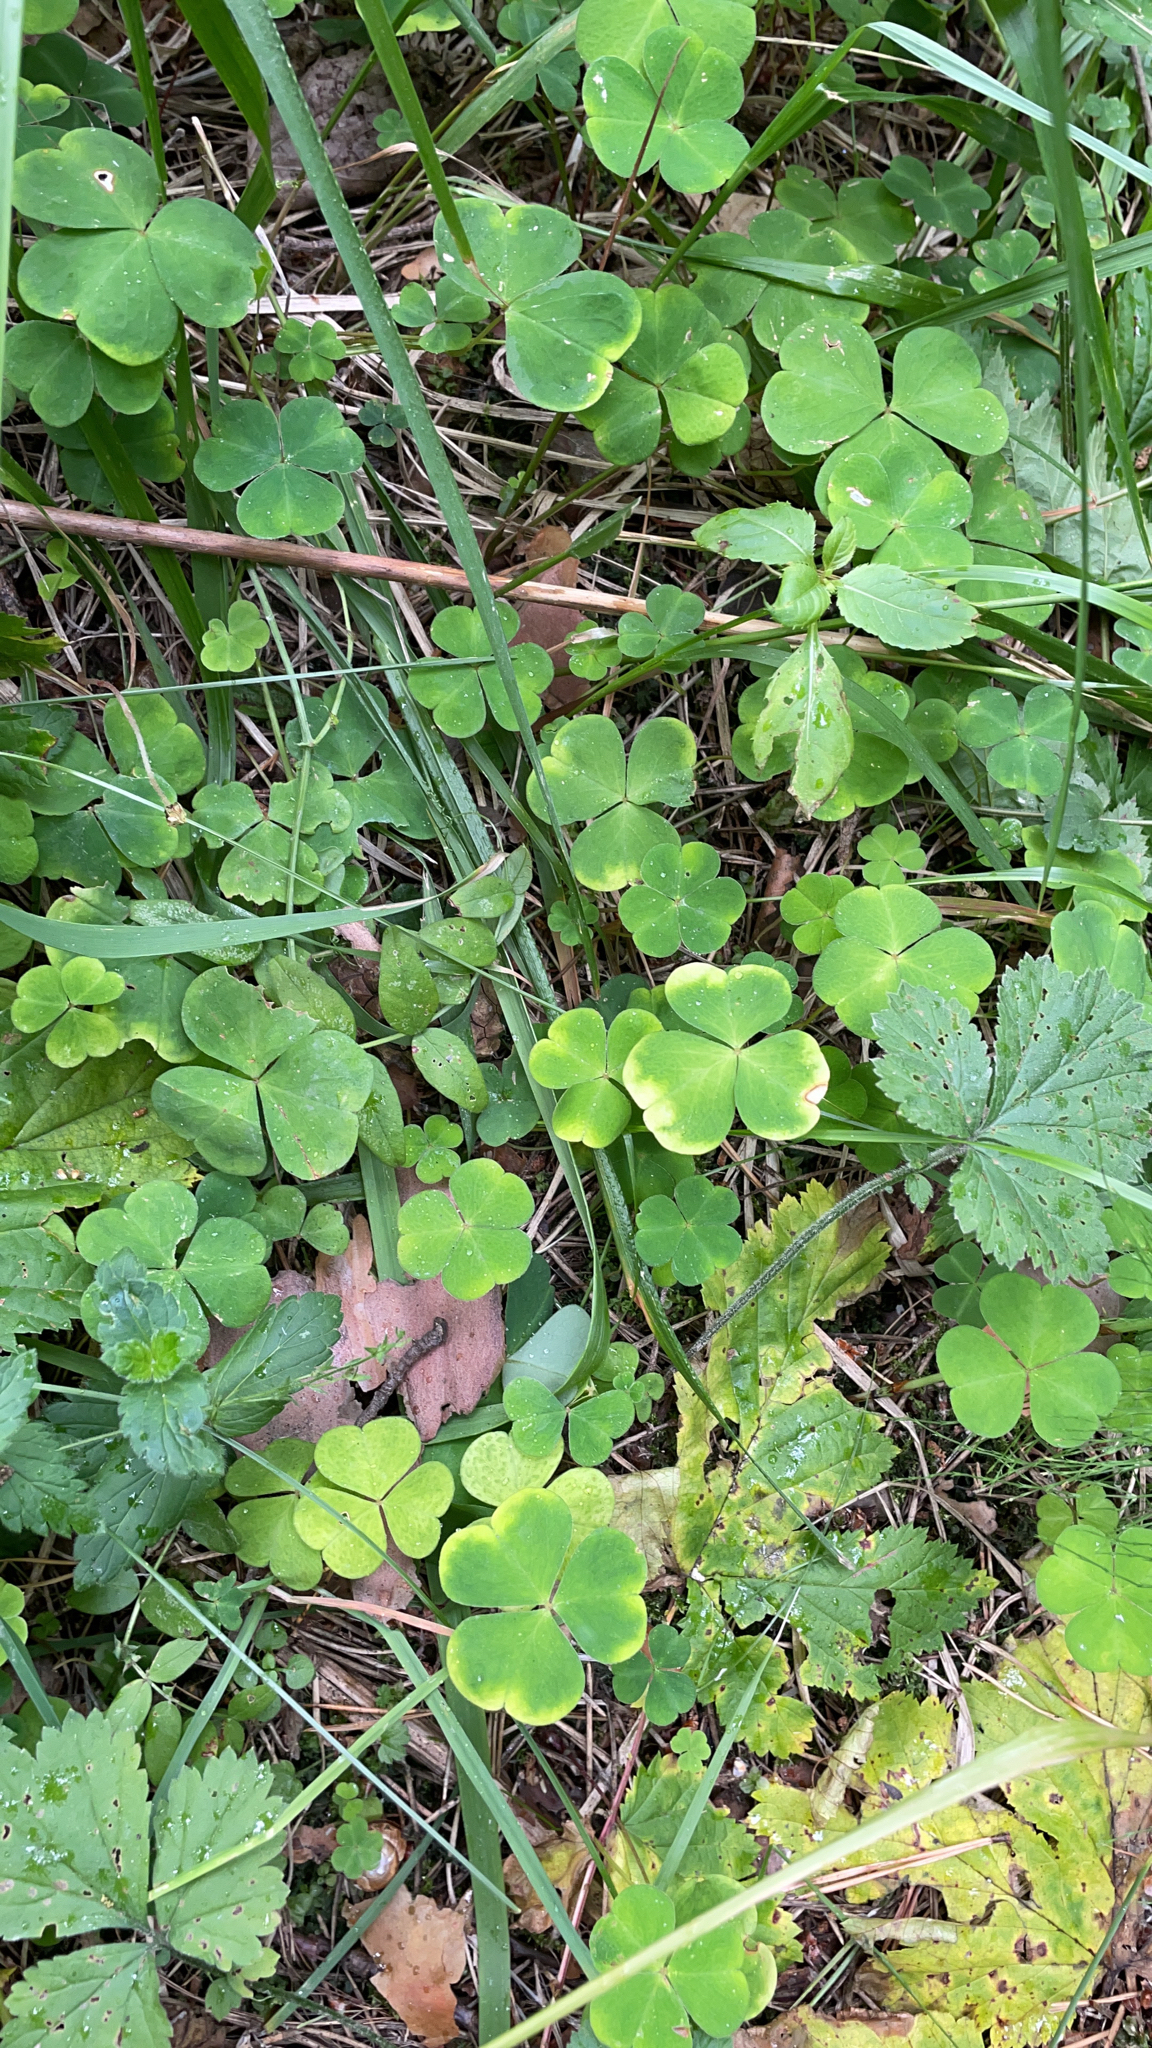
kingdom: Plantae
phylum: Tracheophyta
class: Magnoliopsida
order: Oxalidales
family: Oxalidaceae
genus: Oxalis
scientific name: Oxalis acetosella
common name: Wood-sorrel
